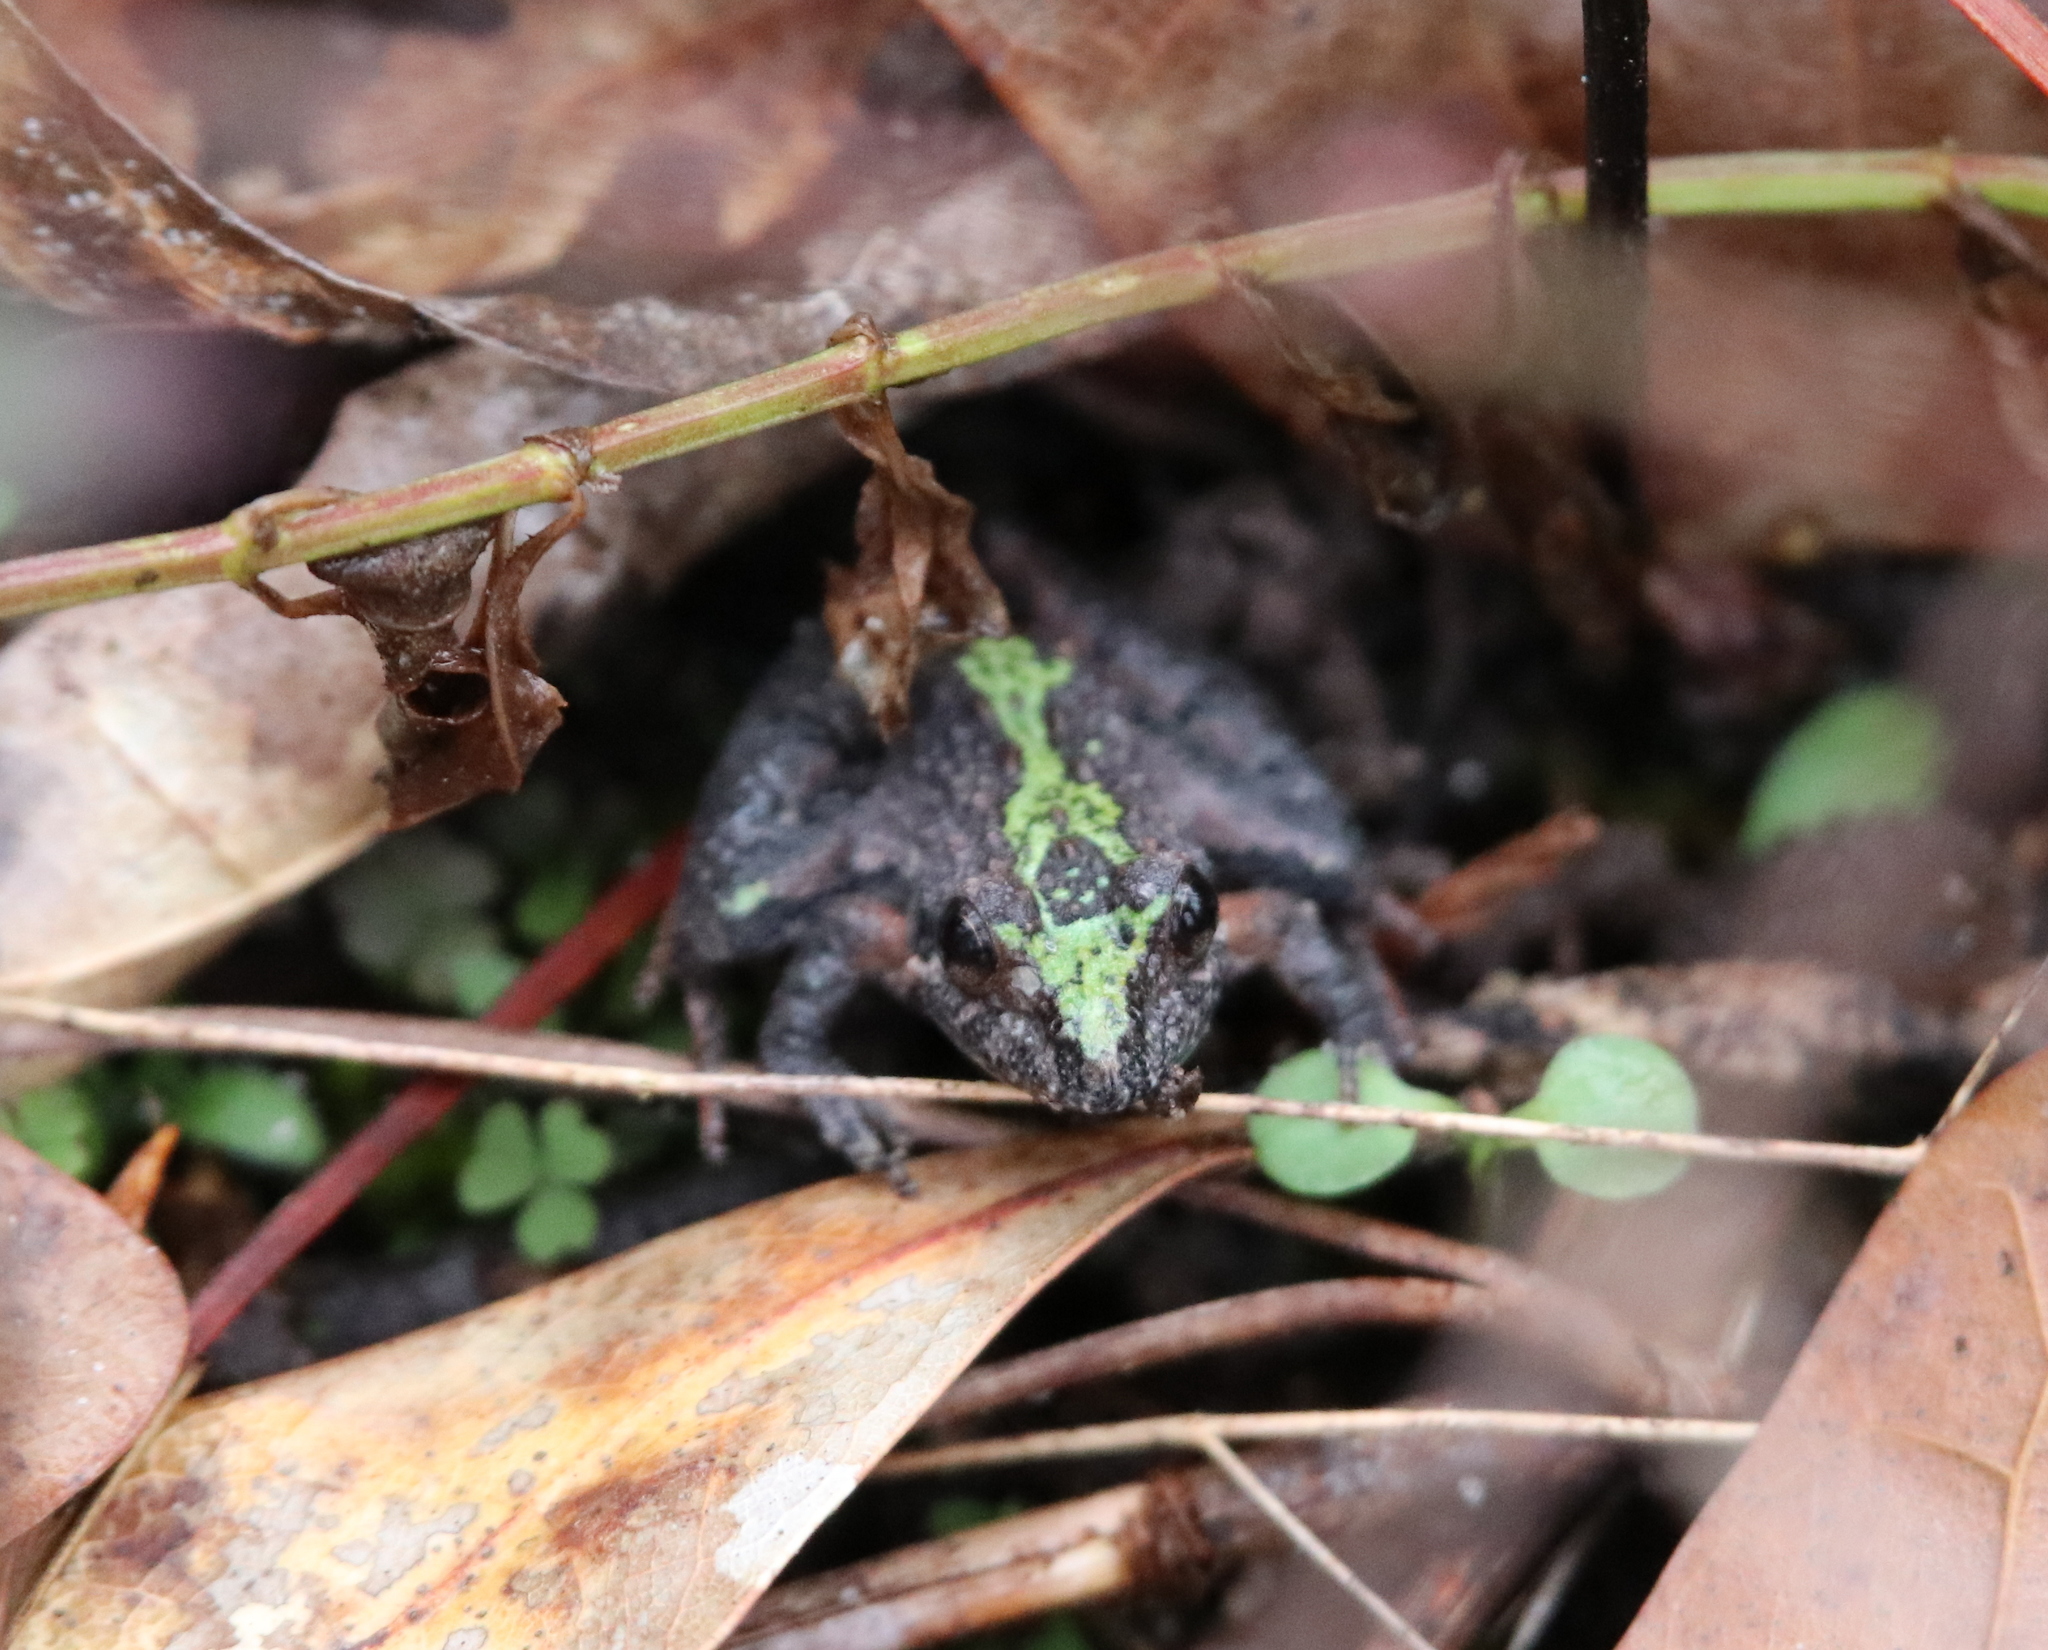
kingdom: Animalia
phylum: Chordata
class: Amphibia
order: Anura
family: Hylidae
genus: Acris
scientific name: Acris gryllus
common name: Southern cricket frog
